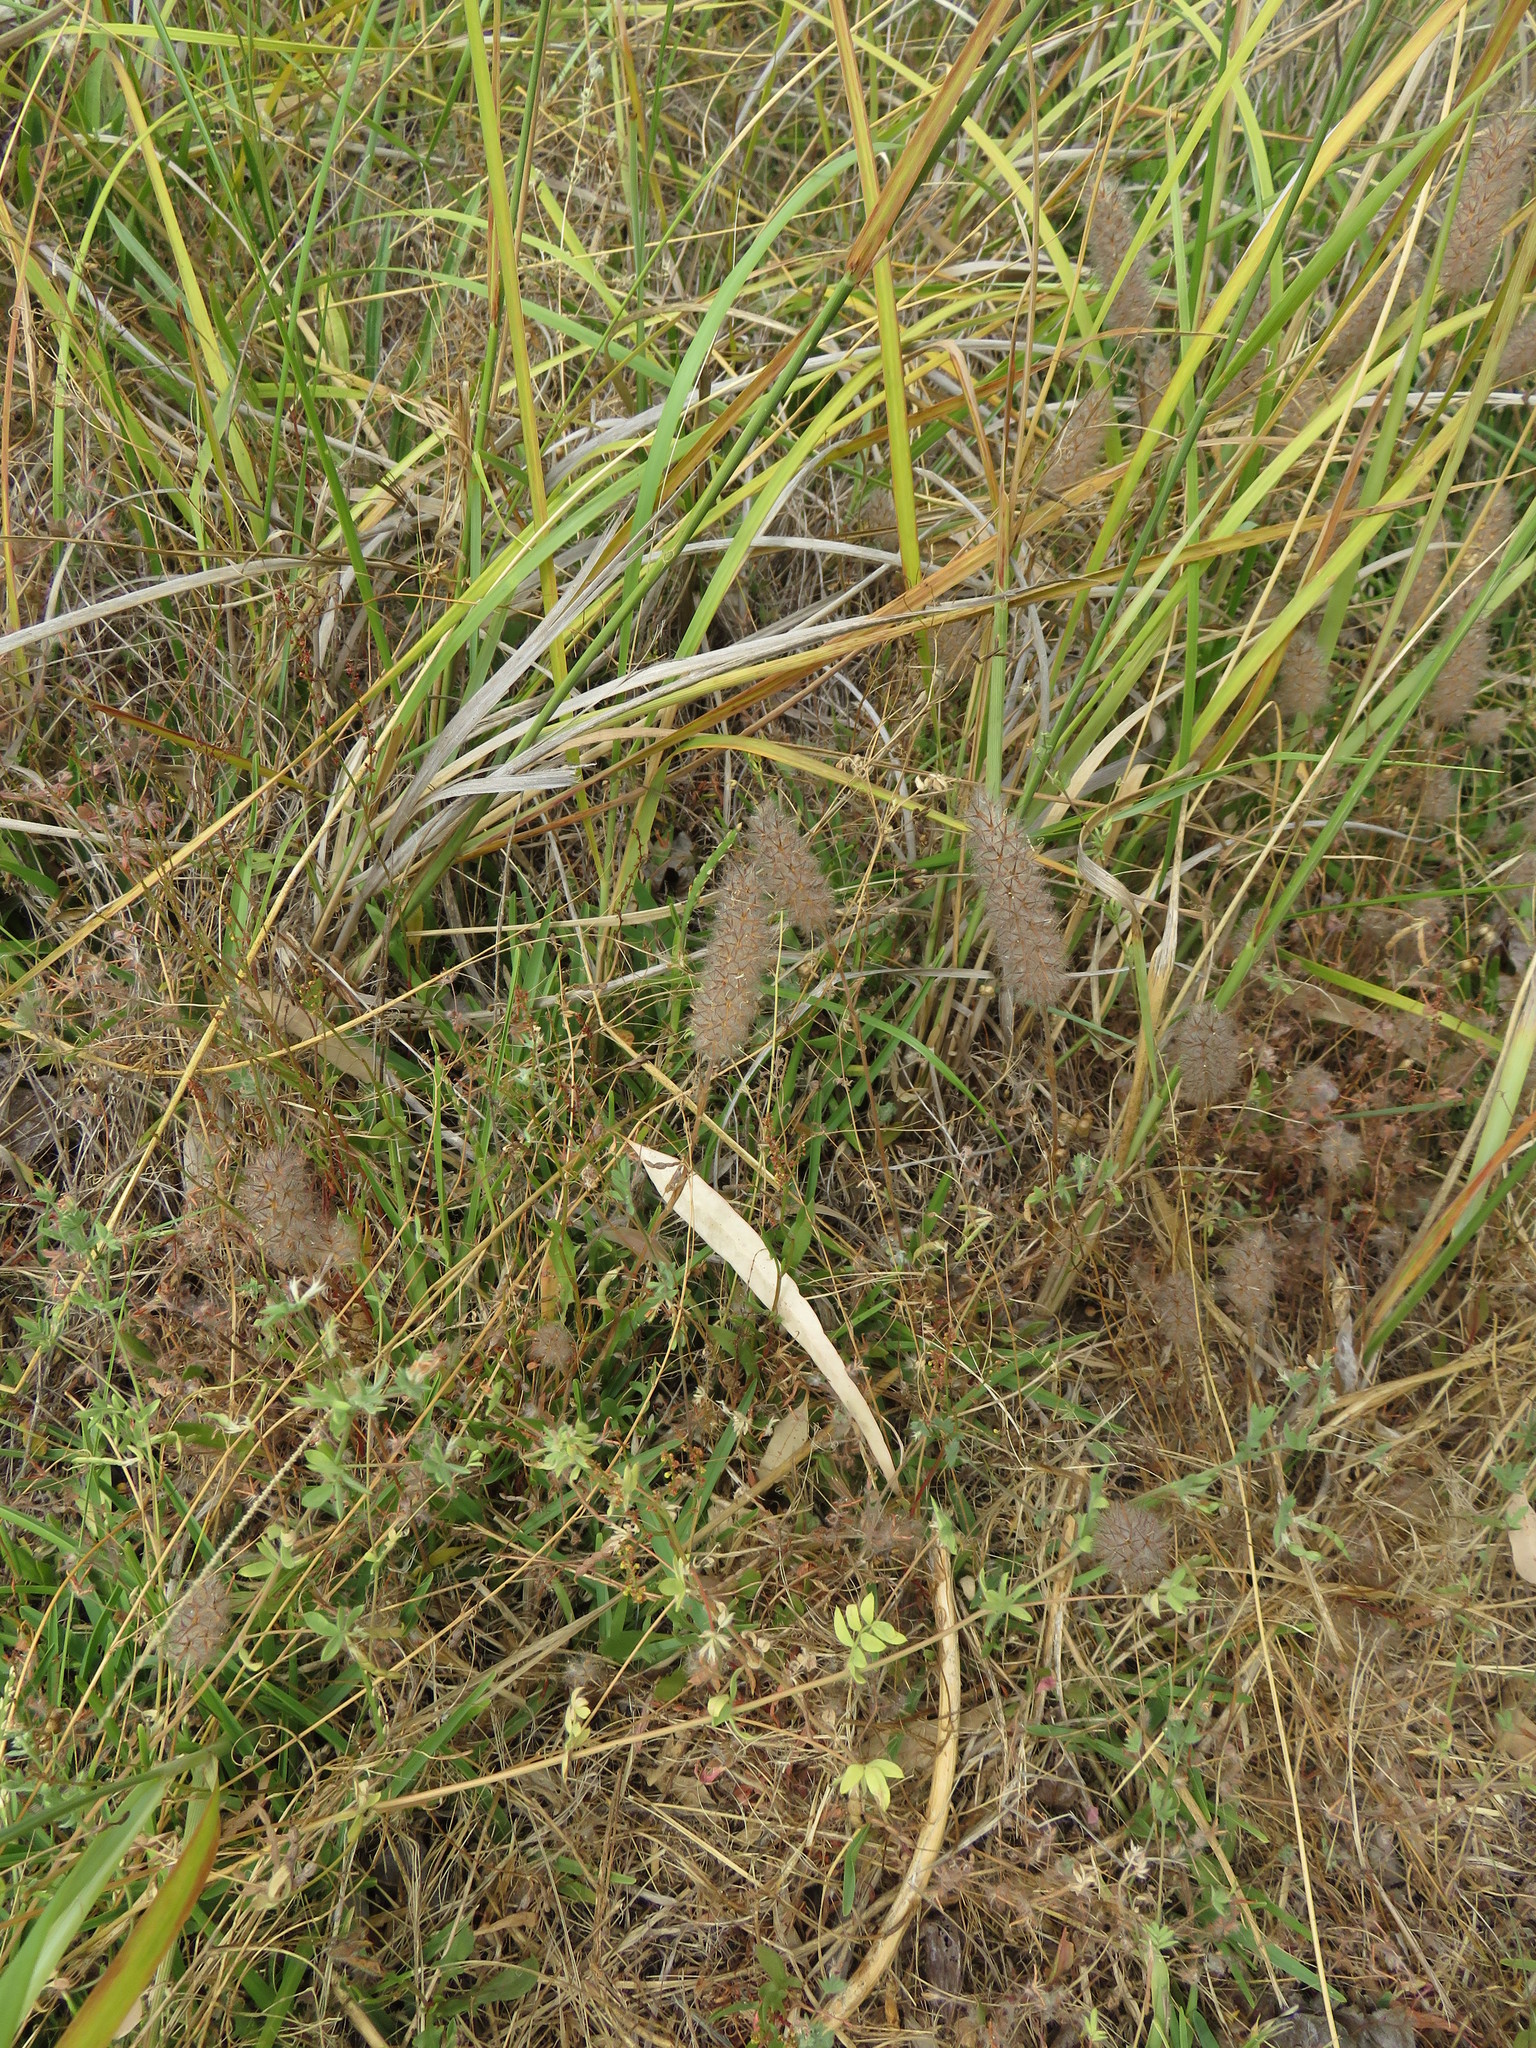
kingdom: Plantae
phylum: Tracheophyta
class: Magnoliopsida
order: Fabales
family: Fabaceae
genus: Trifolium
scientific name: Trifolium angustifolium
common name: Narrow clover
